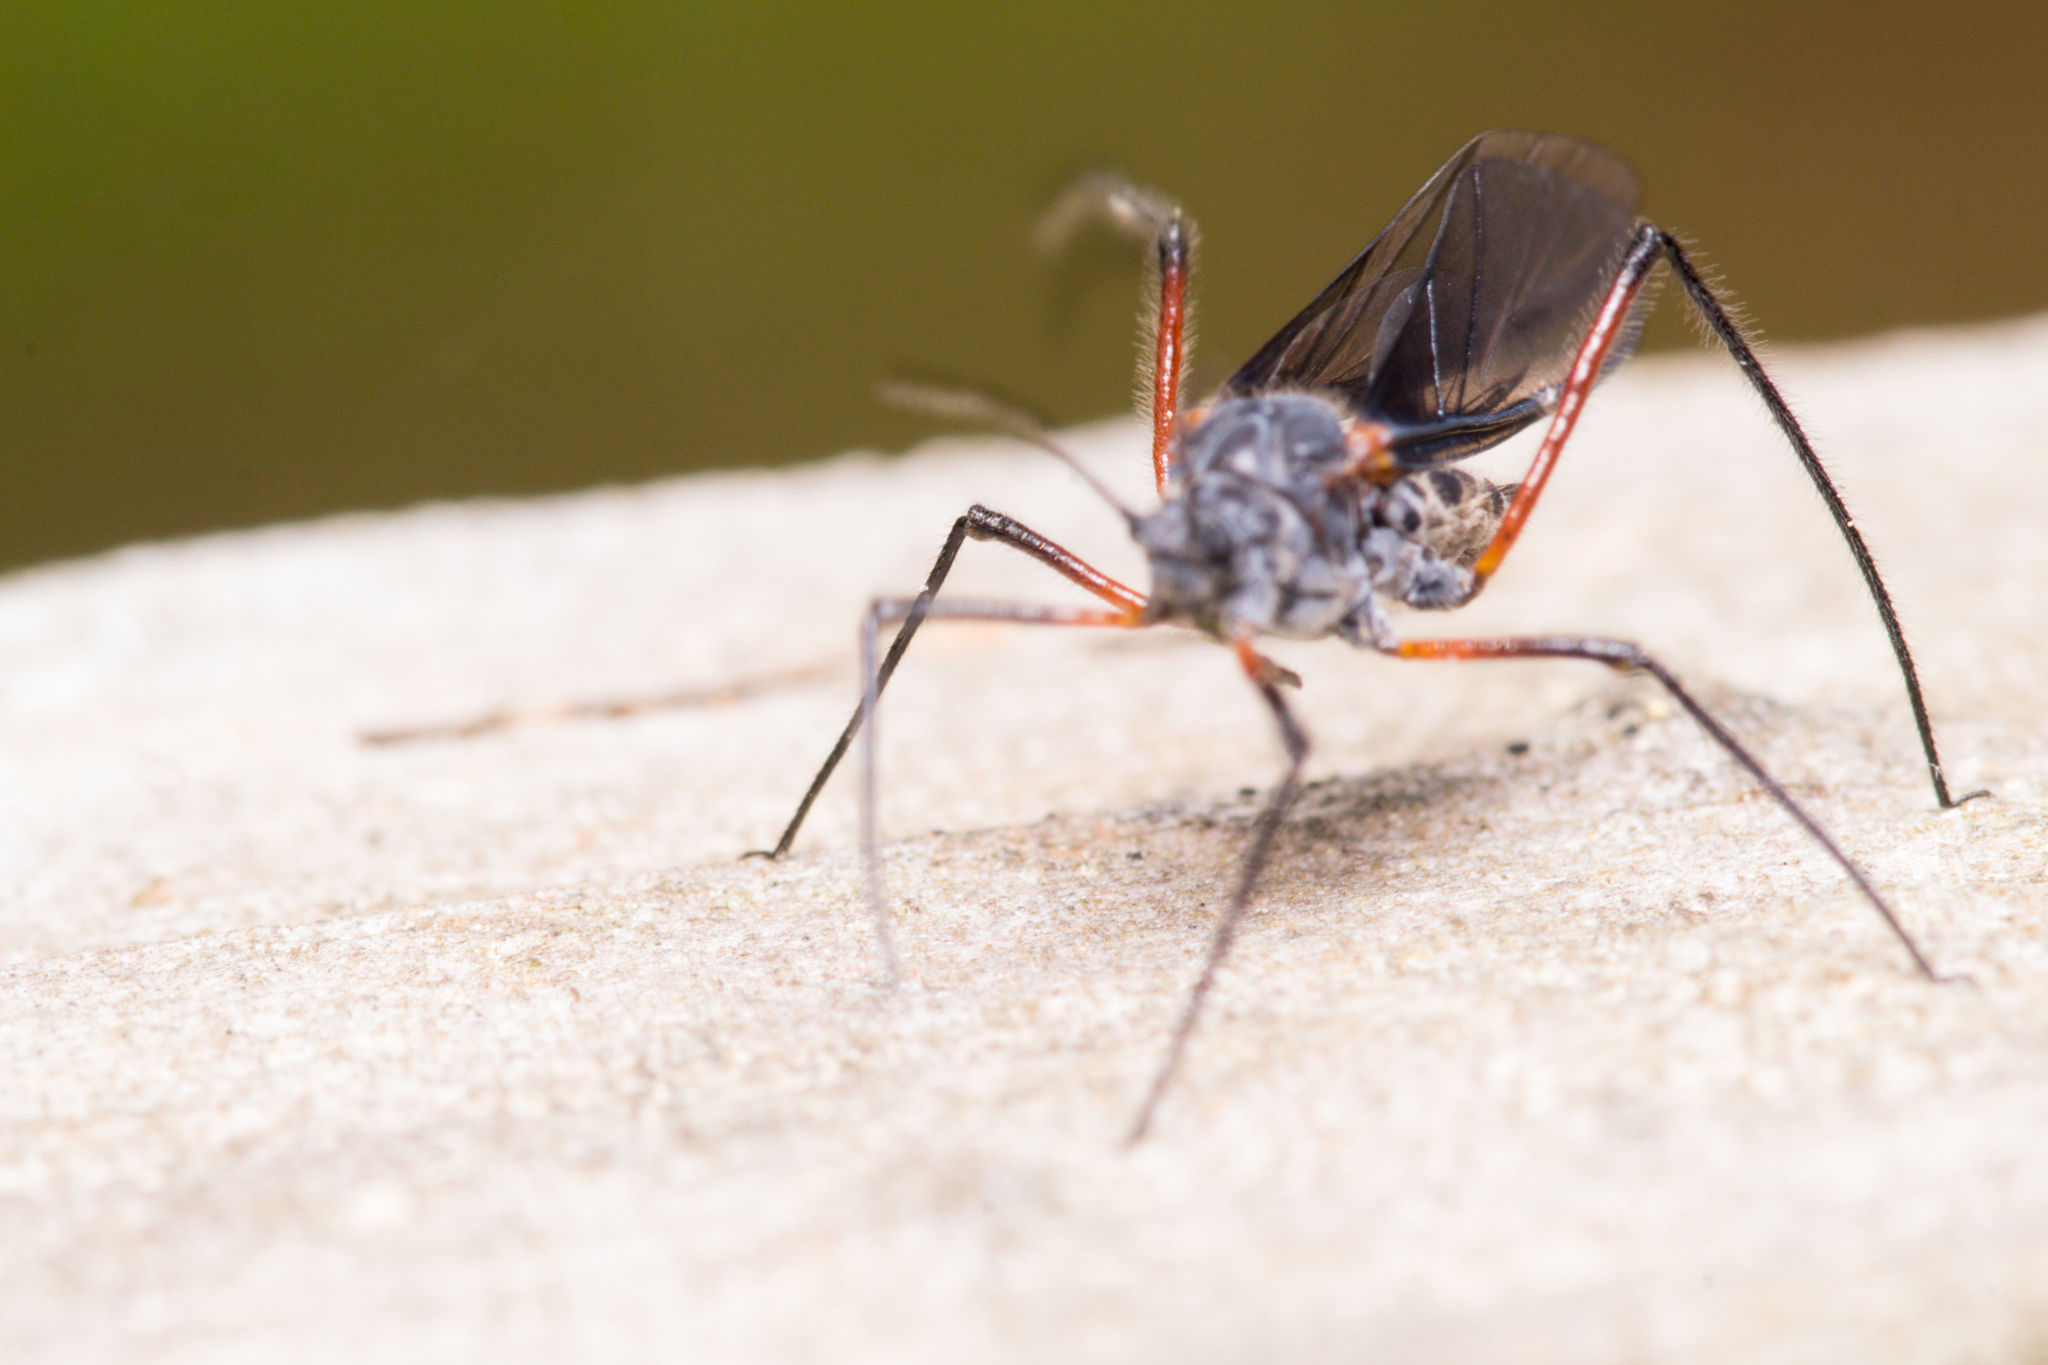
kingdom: Animalia
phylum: Arthropoda
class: Insecta
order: Hemiptera
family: Aphididae
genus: Longistigma
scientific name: Longistigma caryae
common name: Giant bark aphid
